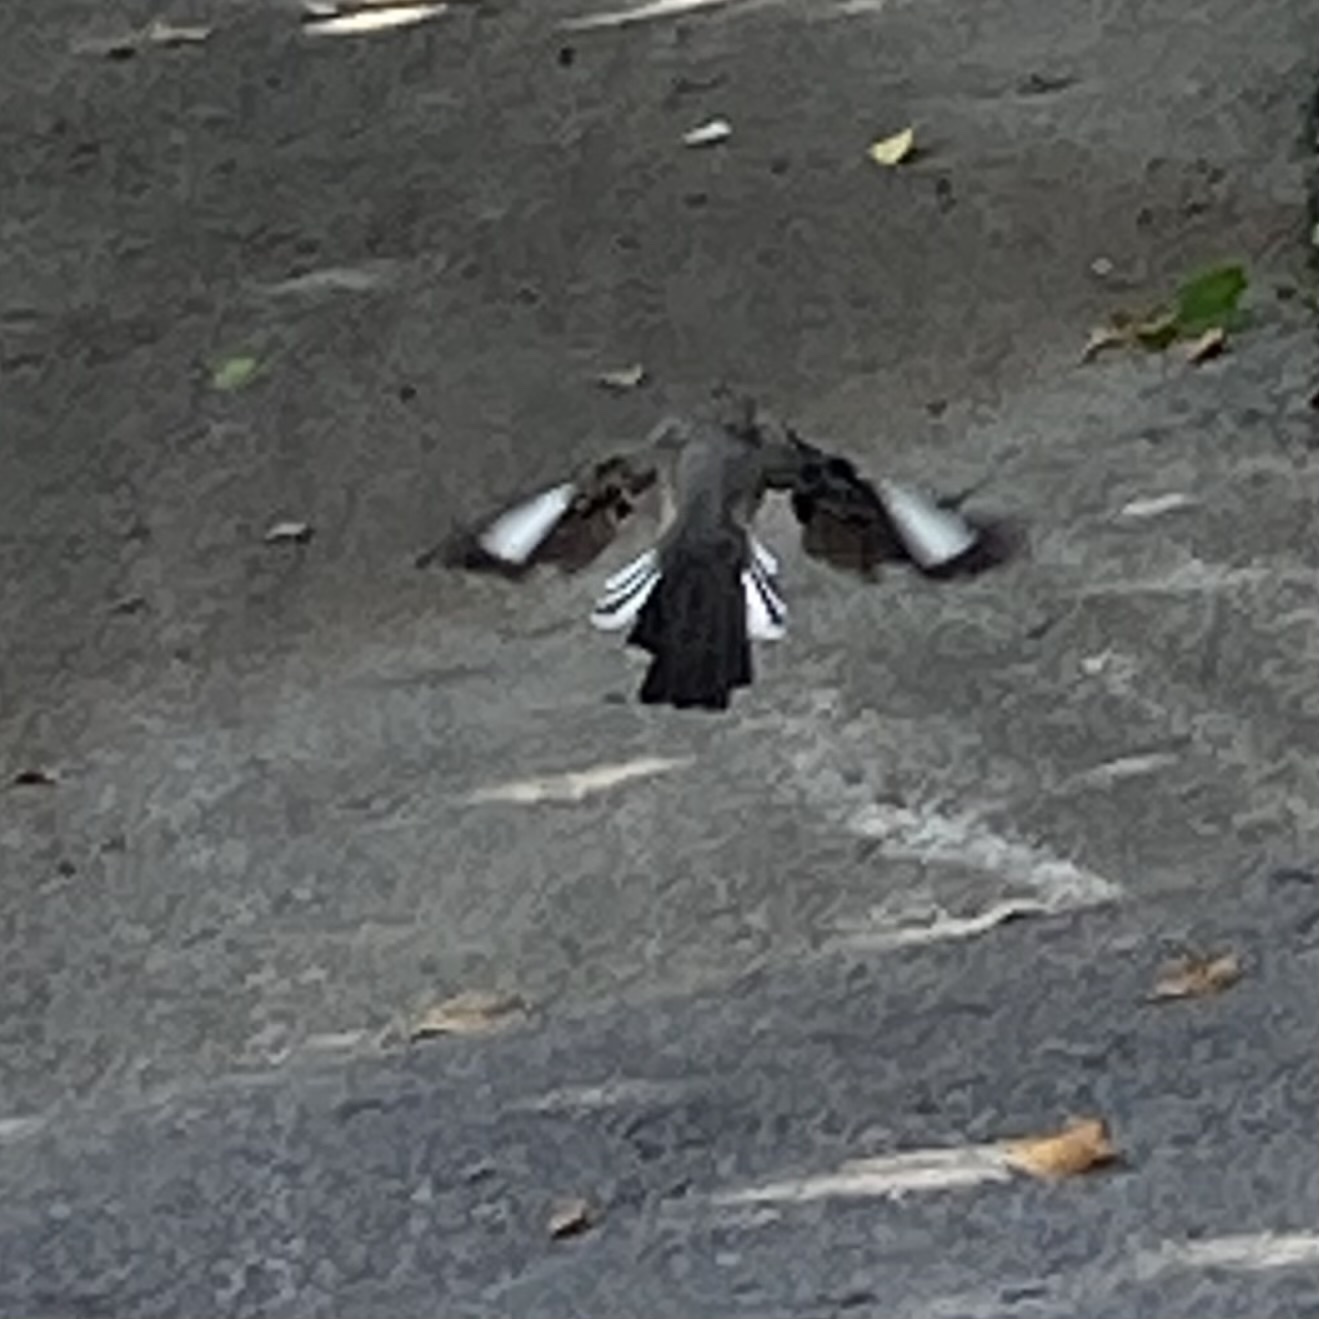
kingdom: Animalia
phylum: Chordata
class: Aves
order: Passeriformes
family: Mimidae
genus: Mimus
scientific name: Mimus polyglottos
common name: Northern mockingbird
